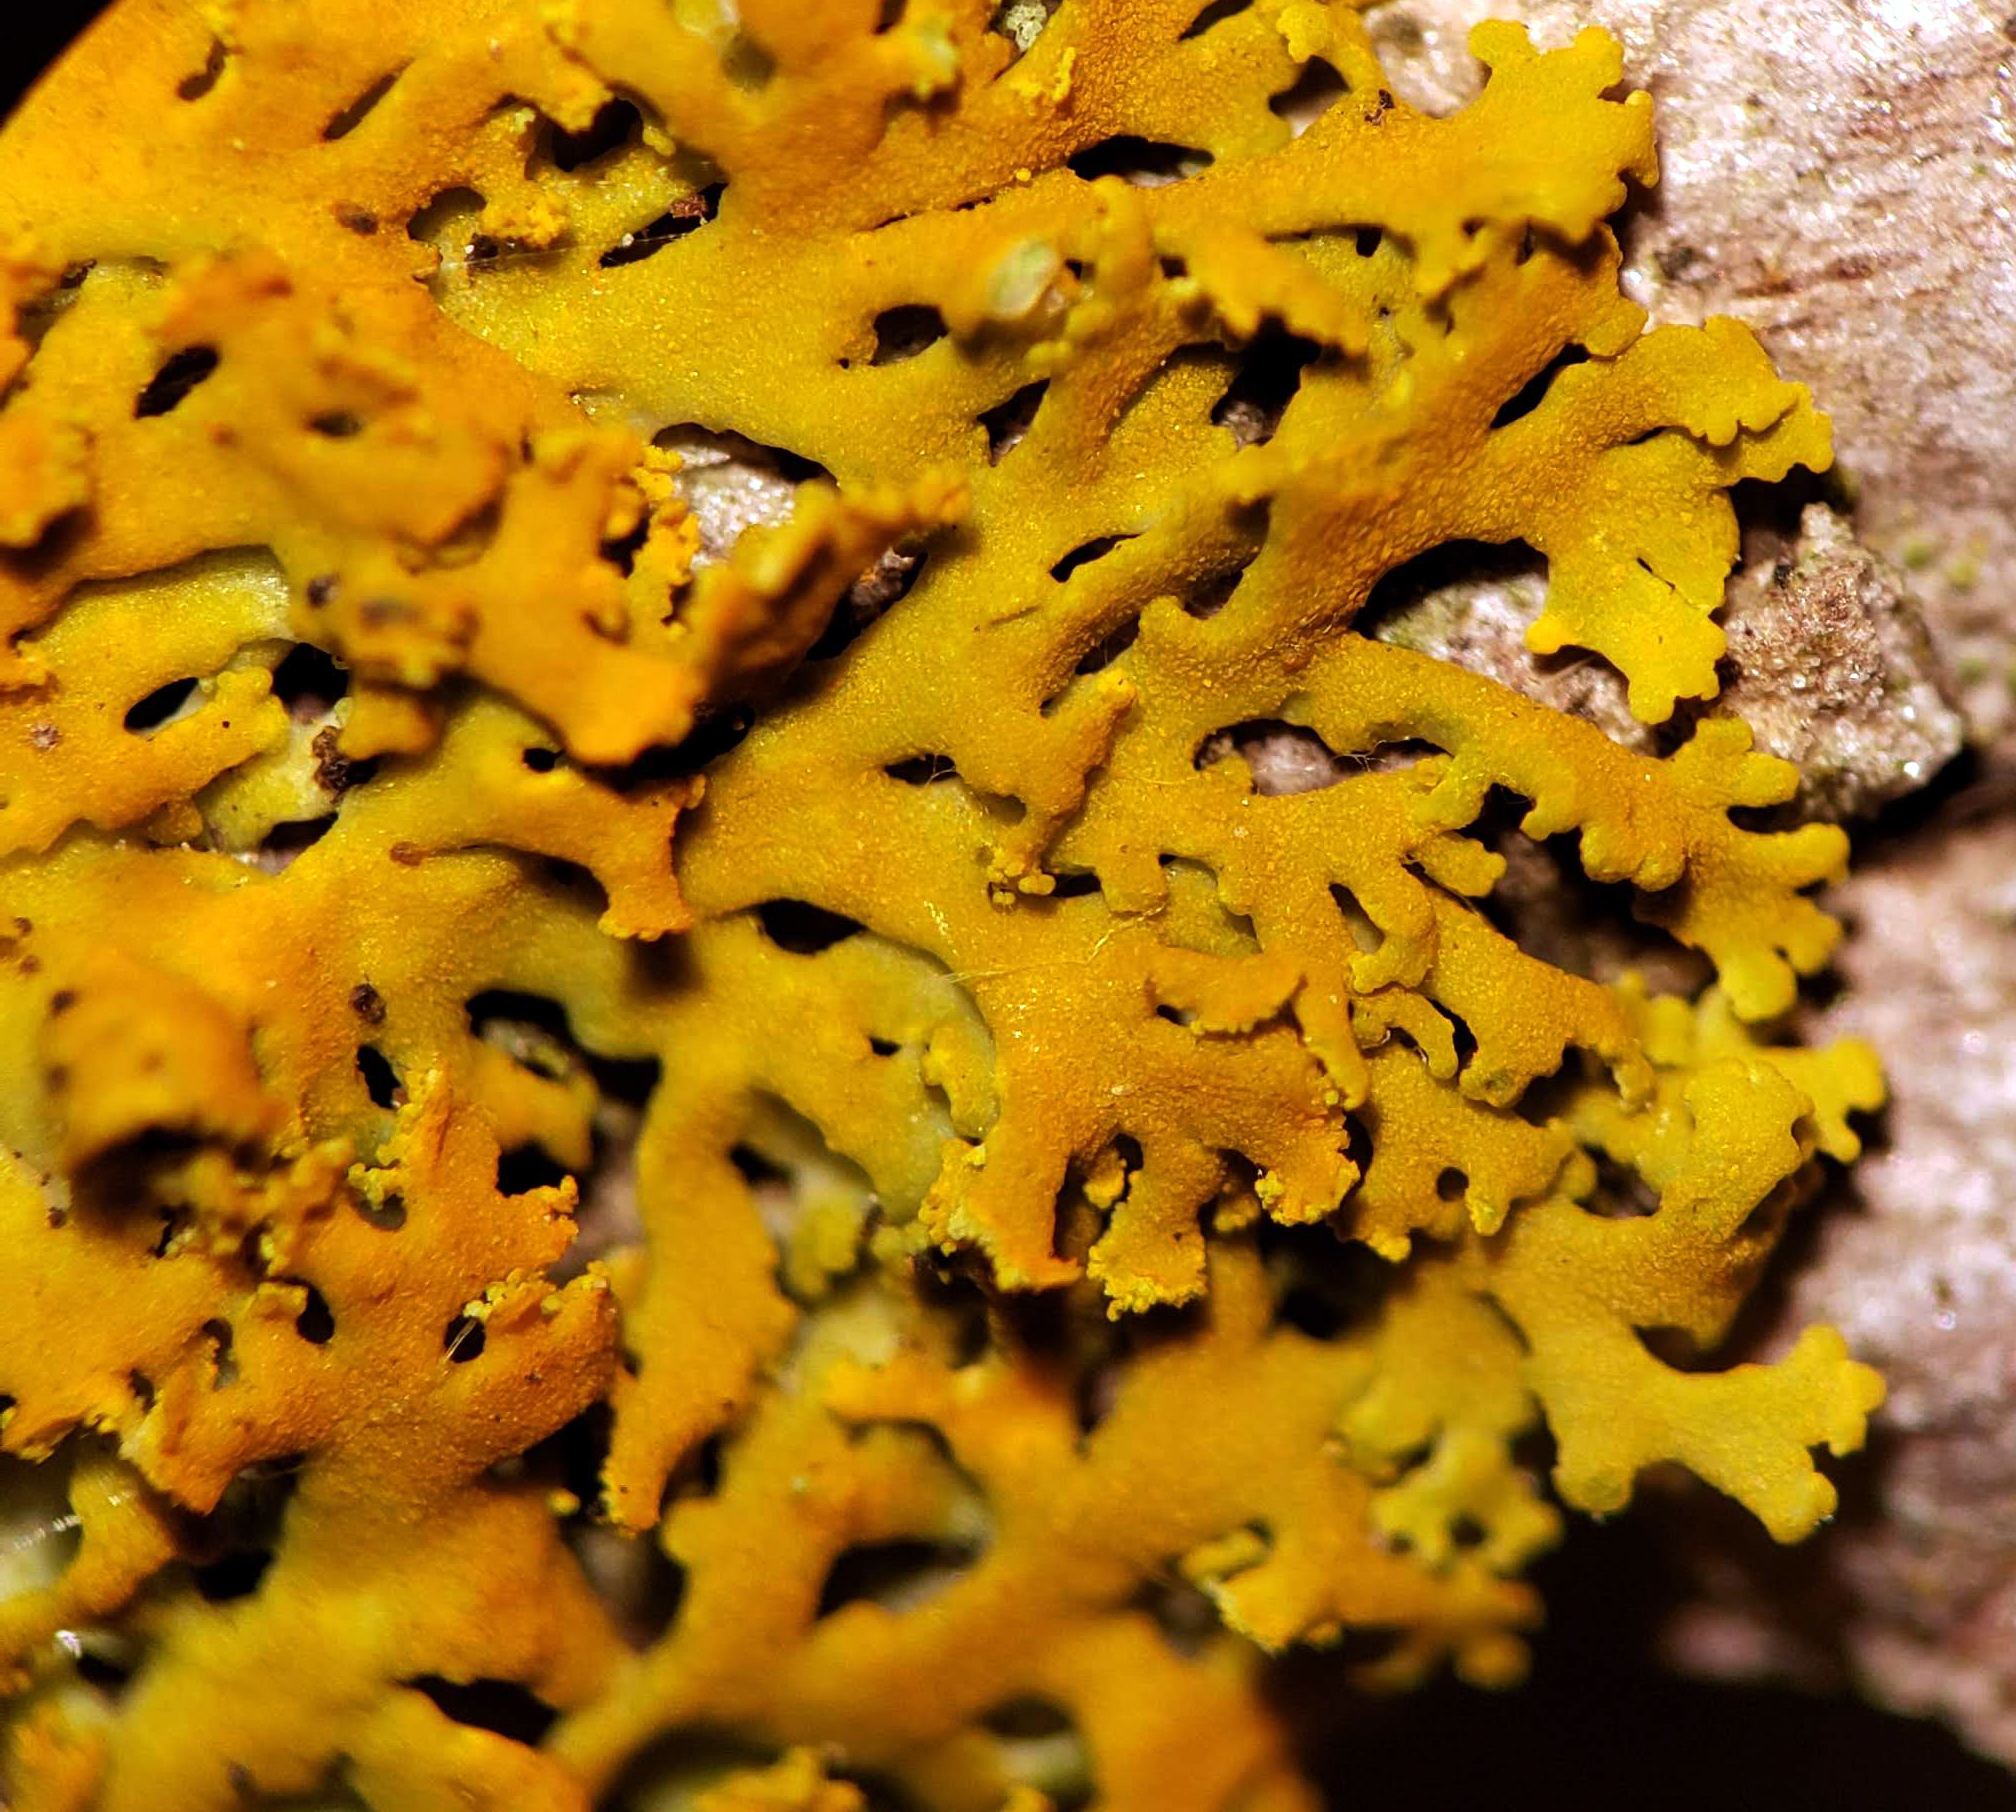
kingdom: Fungi
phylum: Ascomycota
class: Lecanoromycetes
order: Teloschistales
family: Teloschistaceae
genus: Gallowayella
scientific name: Gallowayella weberi
